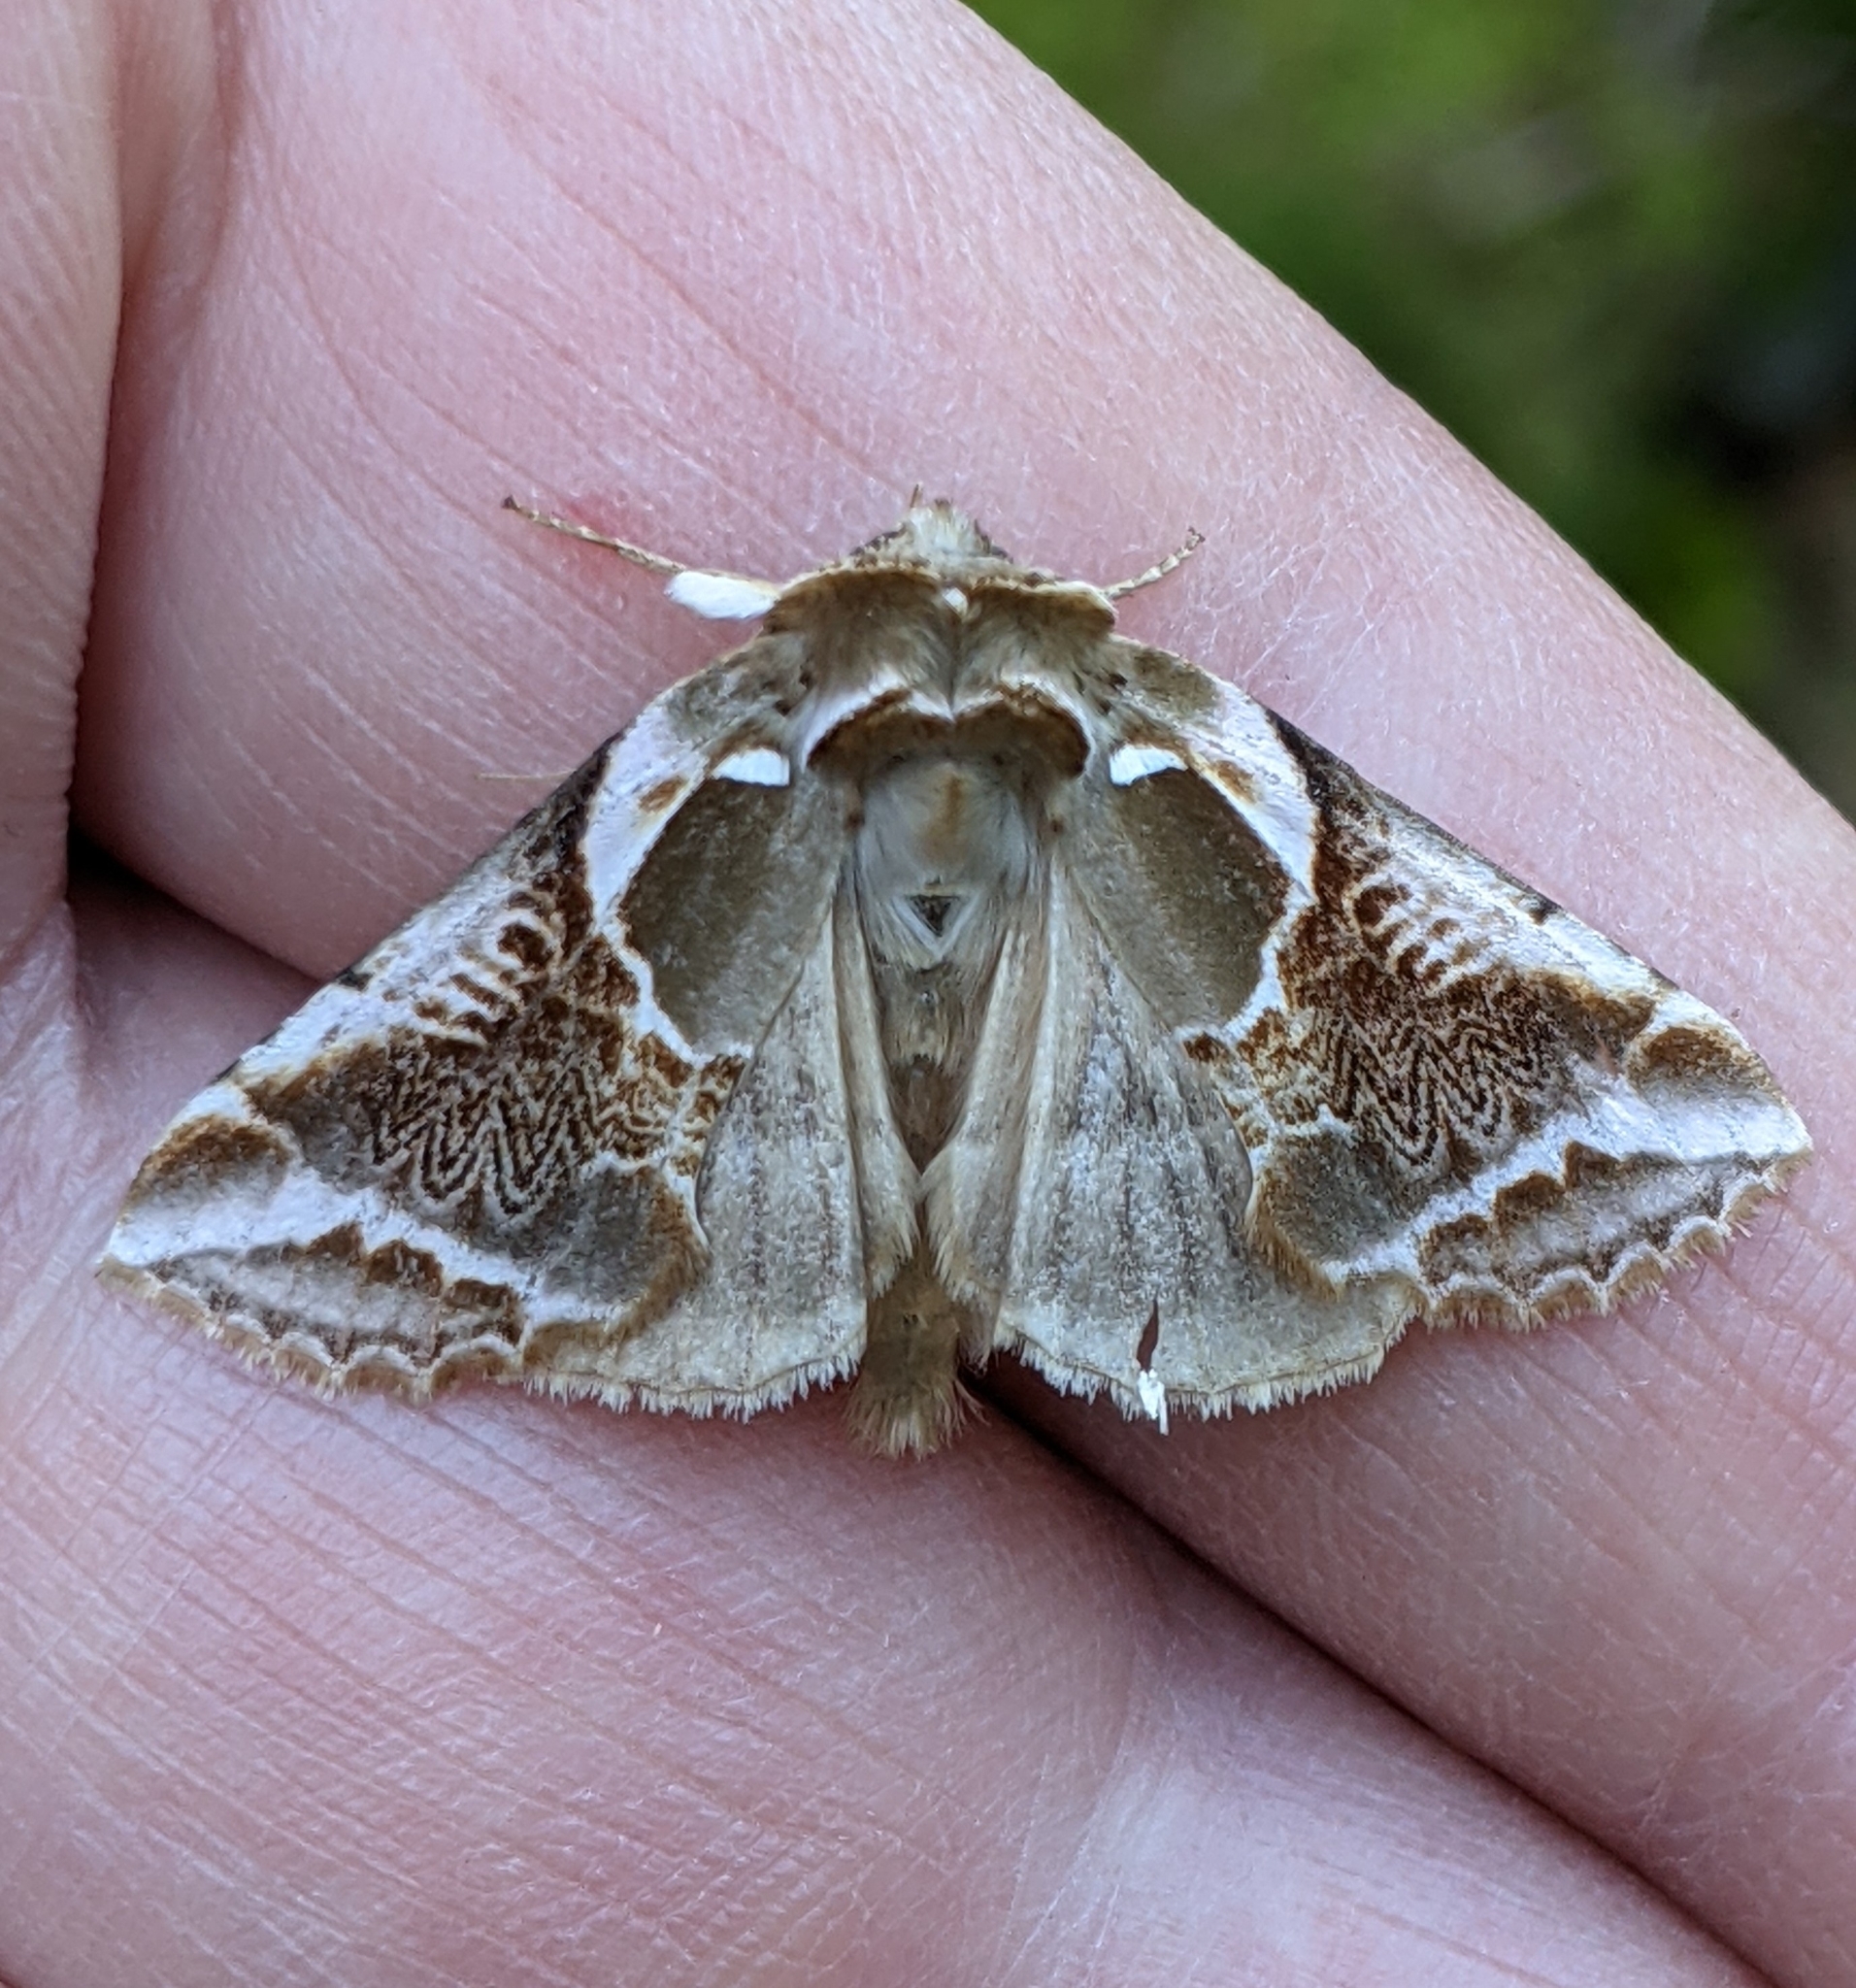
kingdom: Animalia
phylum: Arthropoda
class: Insecta
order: Lepidoptera
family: Drepanidae
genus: Habrosyne
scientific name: Habrosyne scripta
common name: Lettered habrosyne moth
